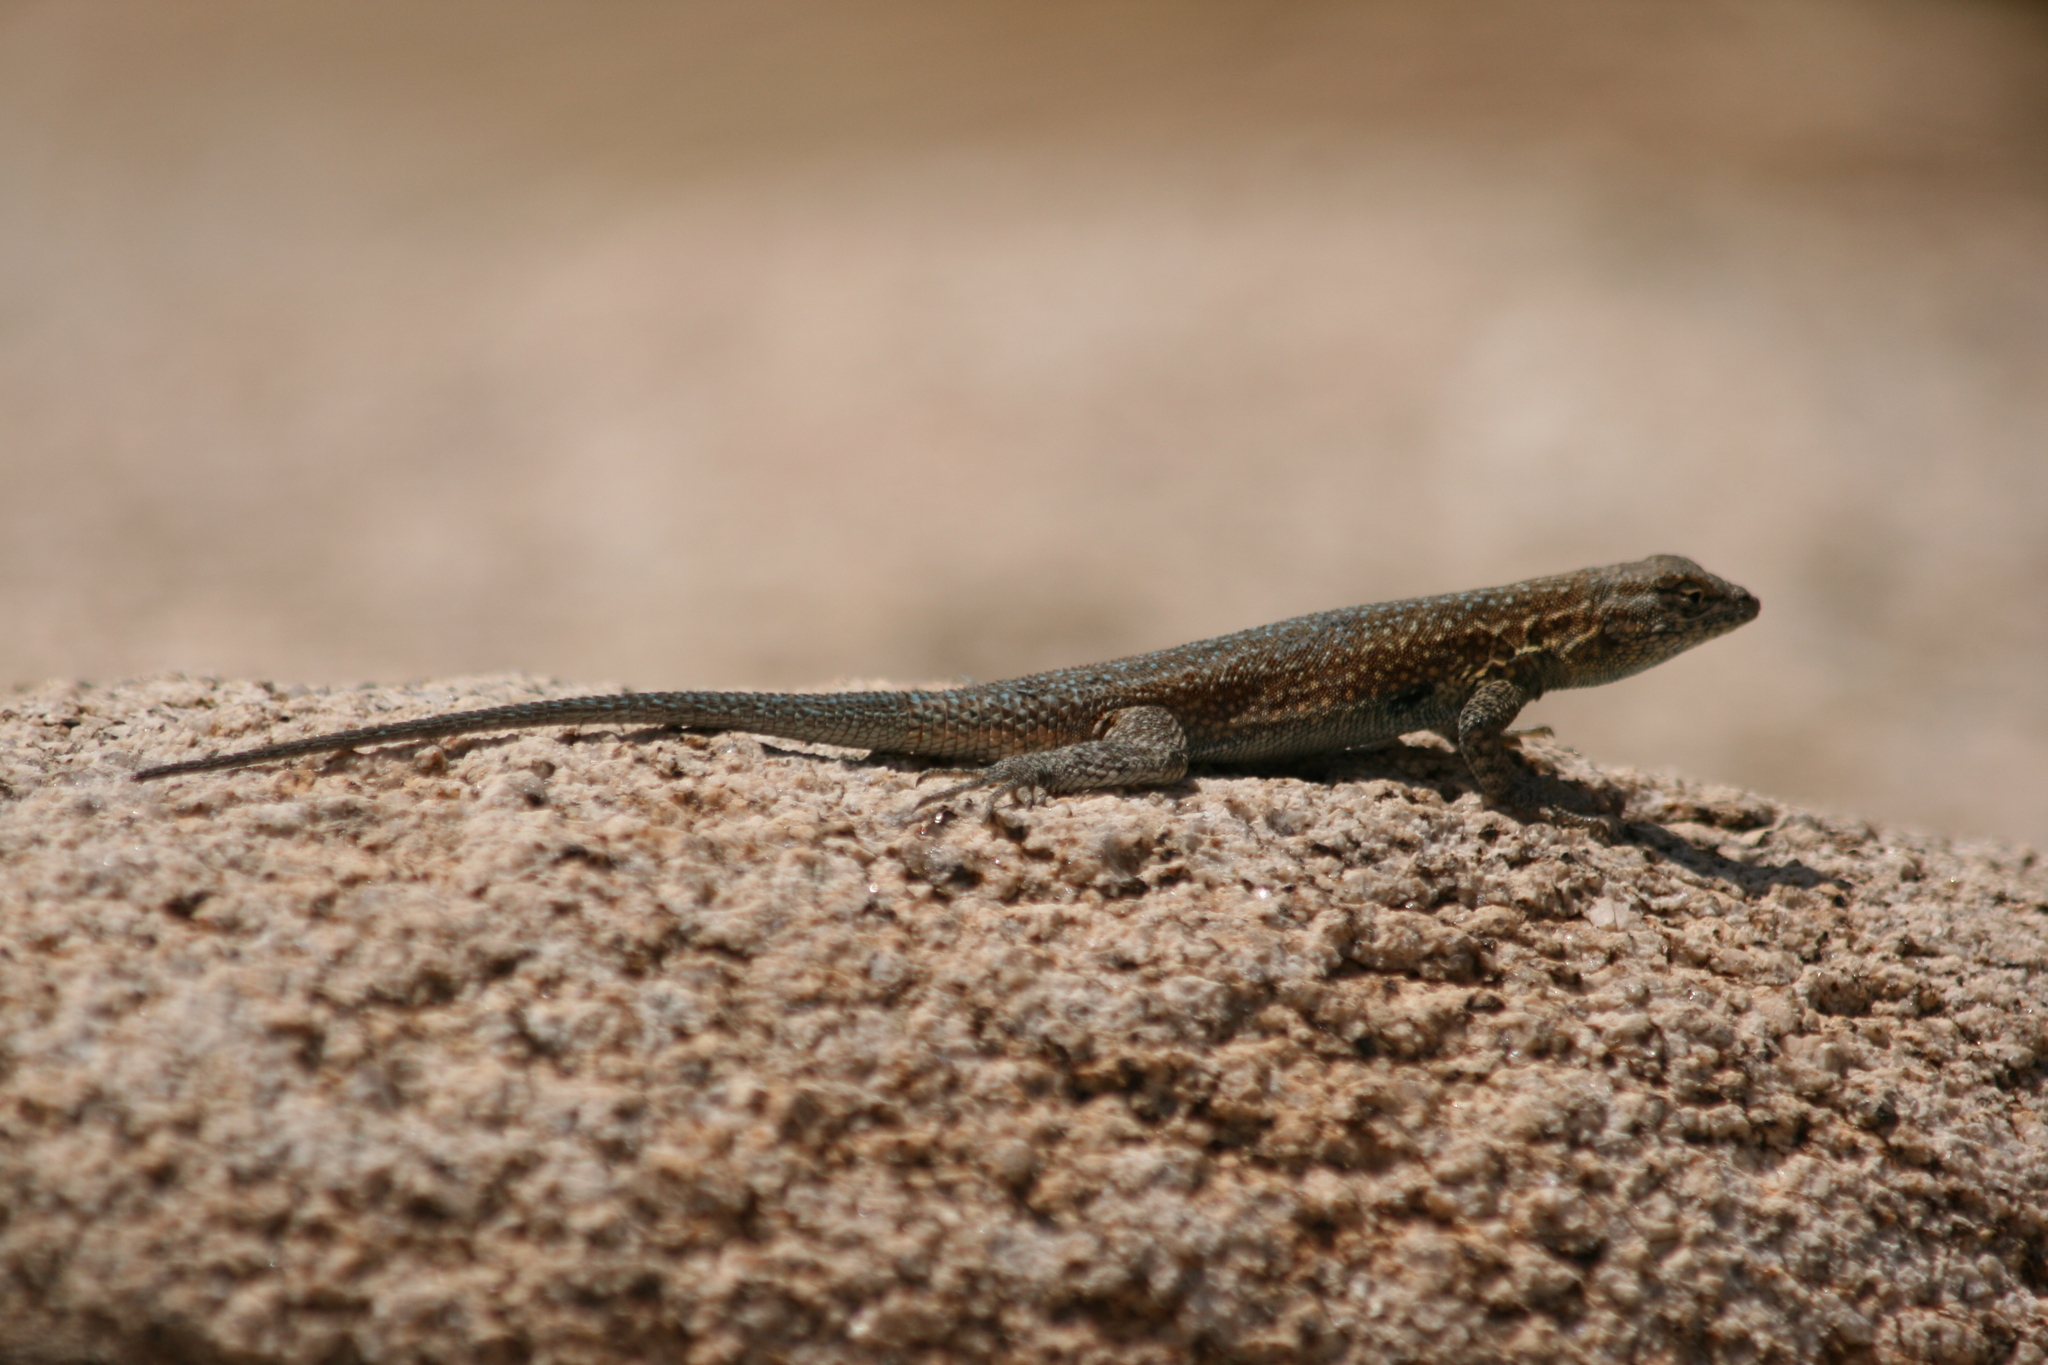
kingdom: Animalia
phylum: Chordata
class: Squamata
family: Phrynosomatidae
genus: Uta
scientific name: Uta stansburiana
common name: Side-blotched lizard
